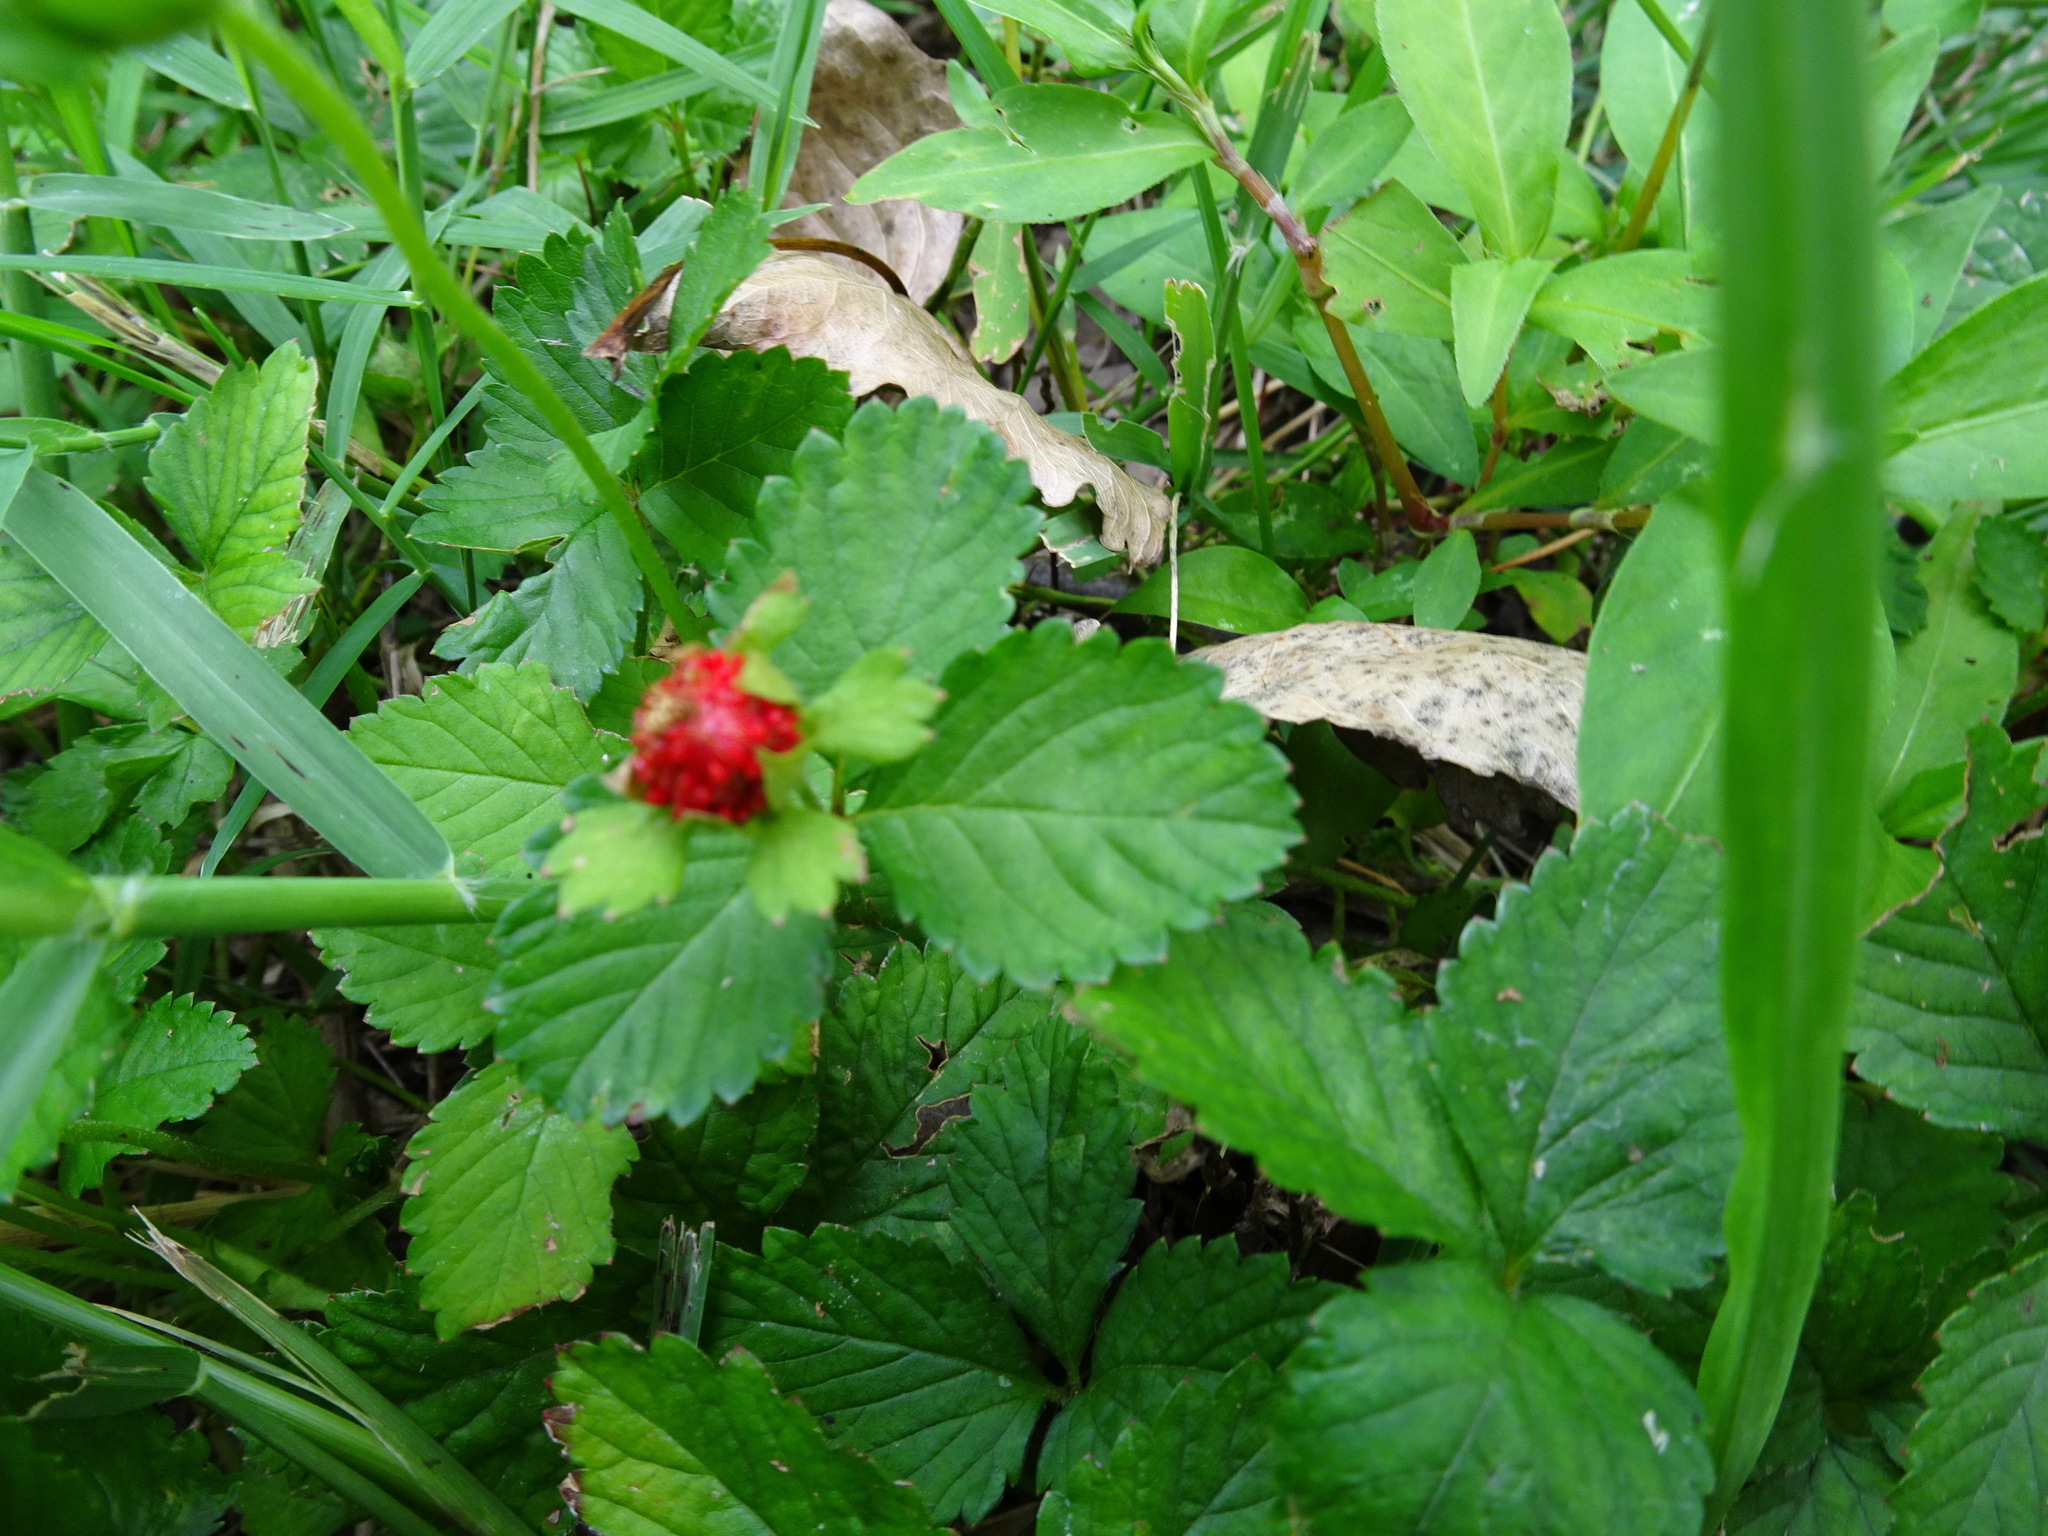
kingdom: Plantae
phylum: Tracheophyta
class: Magnoliopsida
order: Rosales
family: Rosaceae
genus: Potentilla
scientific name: Potentilla indica
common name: Yellow-flowered strawberry
